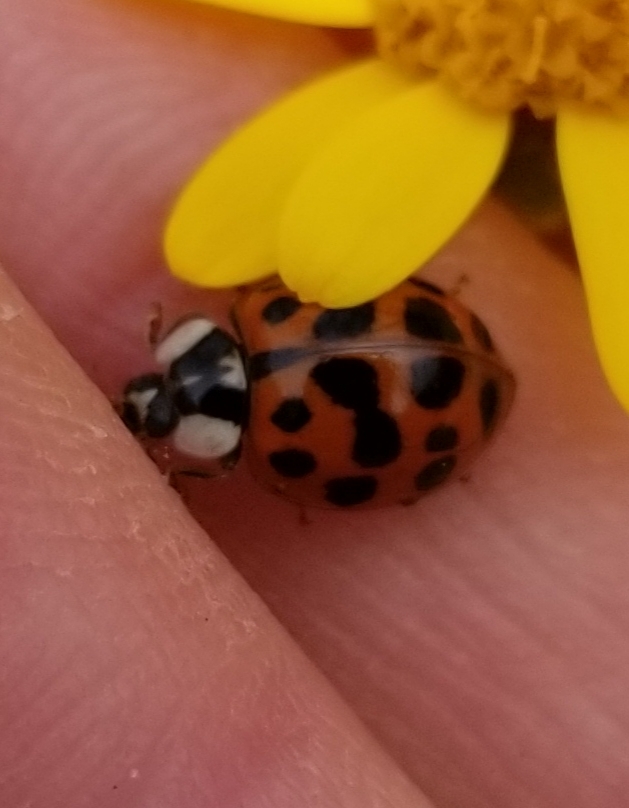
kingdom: Animalia
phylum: Arthropoda
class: Insecta
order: Coleoptera
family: Coccinellidae
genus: Harmonia
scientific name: Harmonia axyridis
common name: Harlequin ladybird
